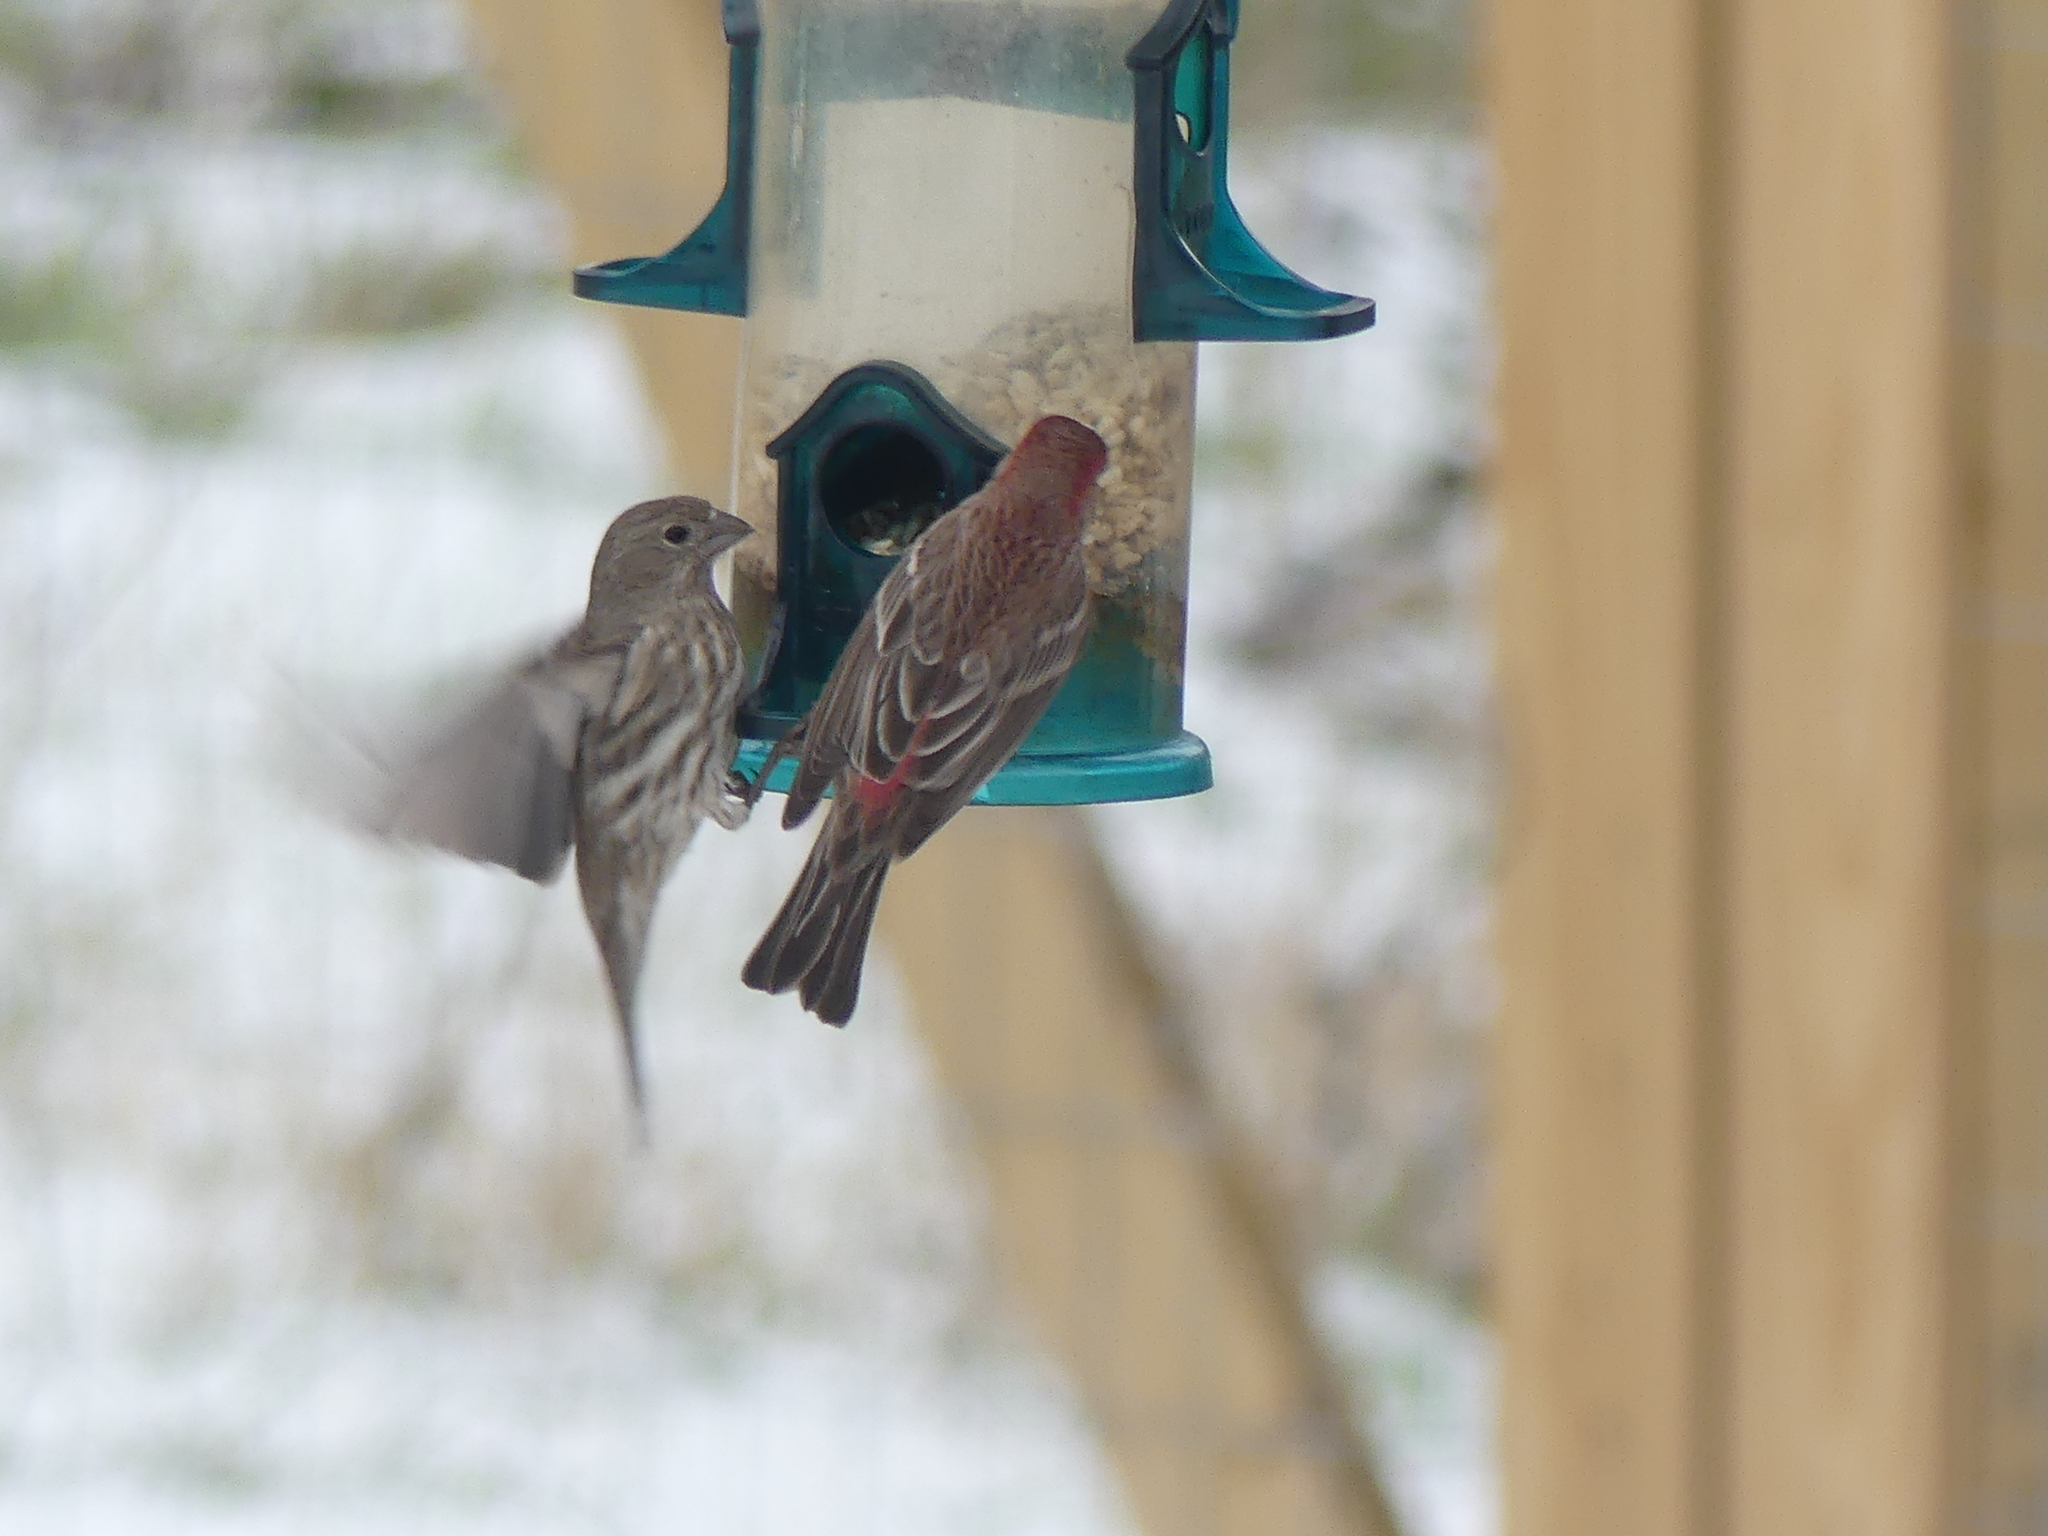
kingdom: Animalia
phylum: Chordata
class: Aves
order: Passeriformes
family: Fringillidae
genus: Haemorhous
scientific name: Haemorhous mexicanus
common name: House finch
